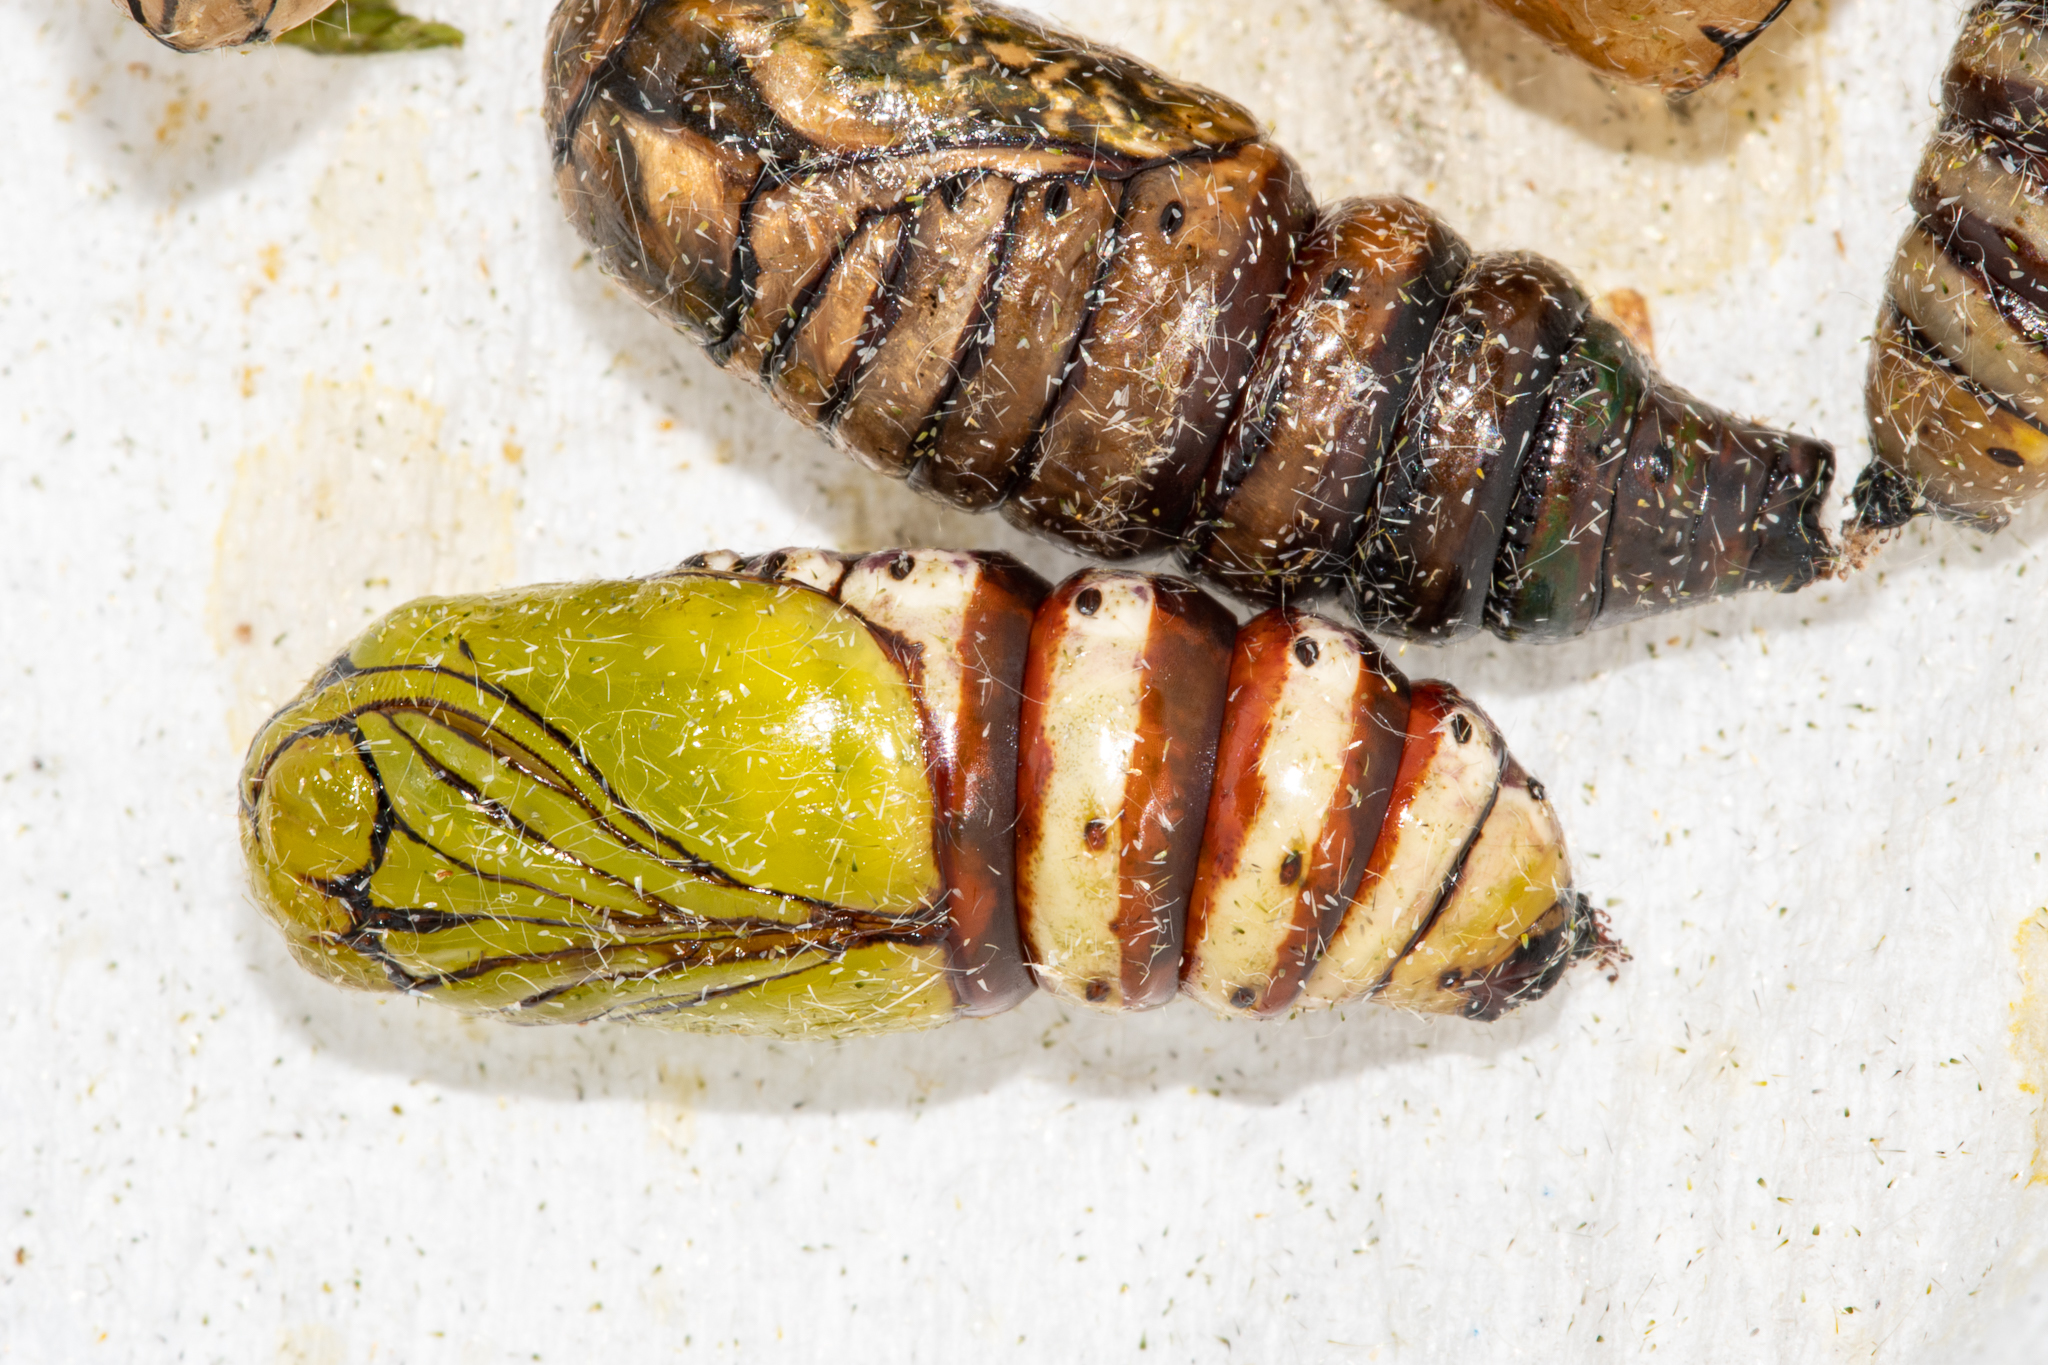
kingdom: Animalia
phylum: Arthropoda
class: Insecta
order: Lepidoptera
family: Noctuidae
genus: Nyodes
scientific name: Nyodes lutescens
